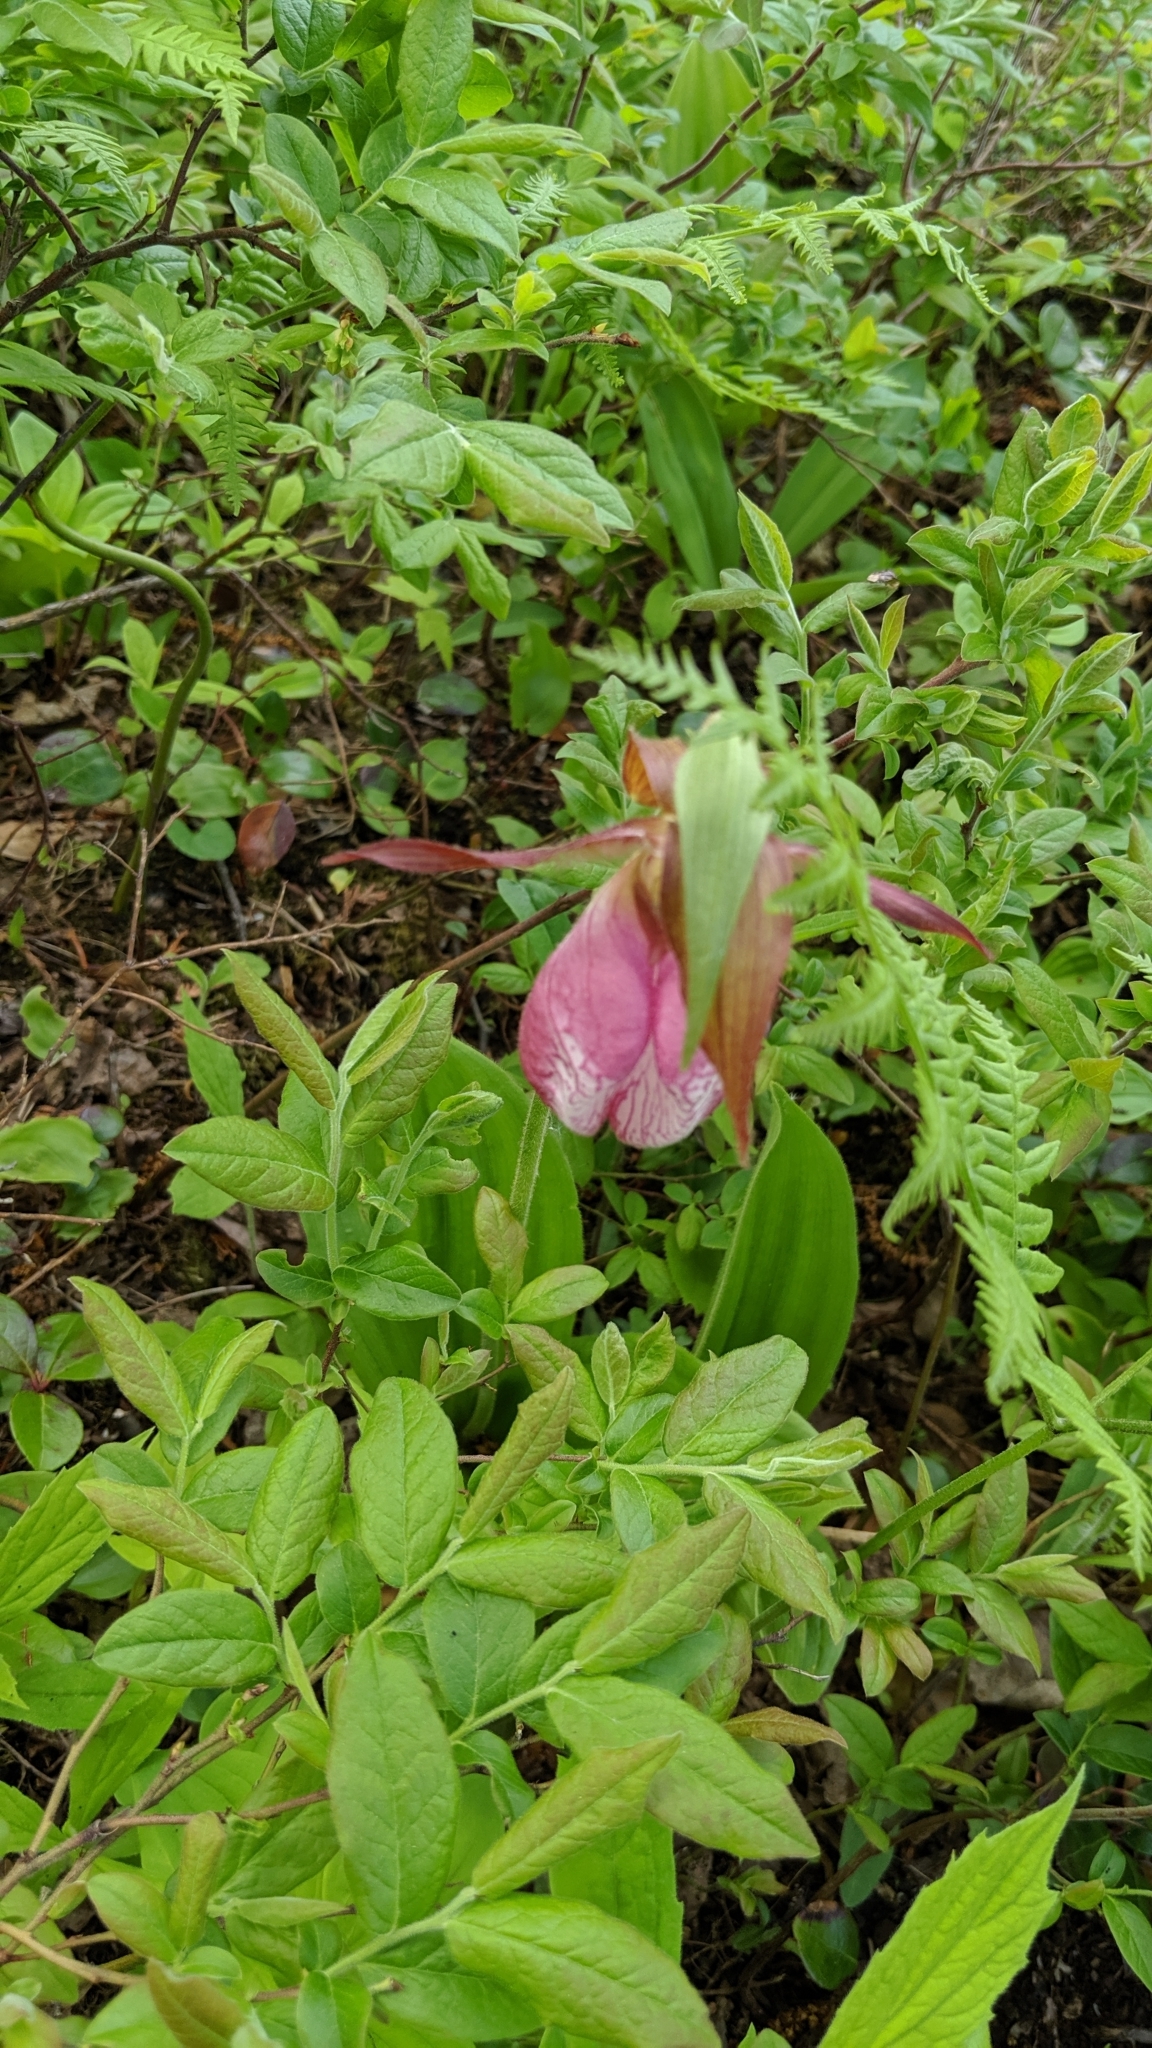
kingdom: Plantae
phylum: Tracheophyta
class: Liliopsida
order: Asparagales
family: Orchidaceae
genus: Cypripedium
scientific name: Cypripedium acaule
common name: Pink lady's-slipper
